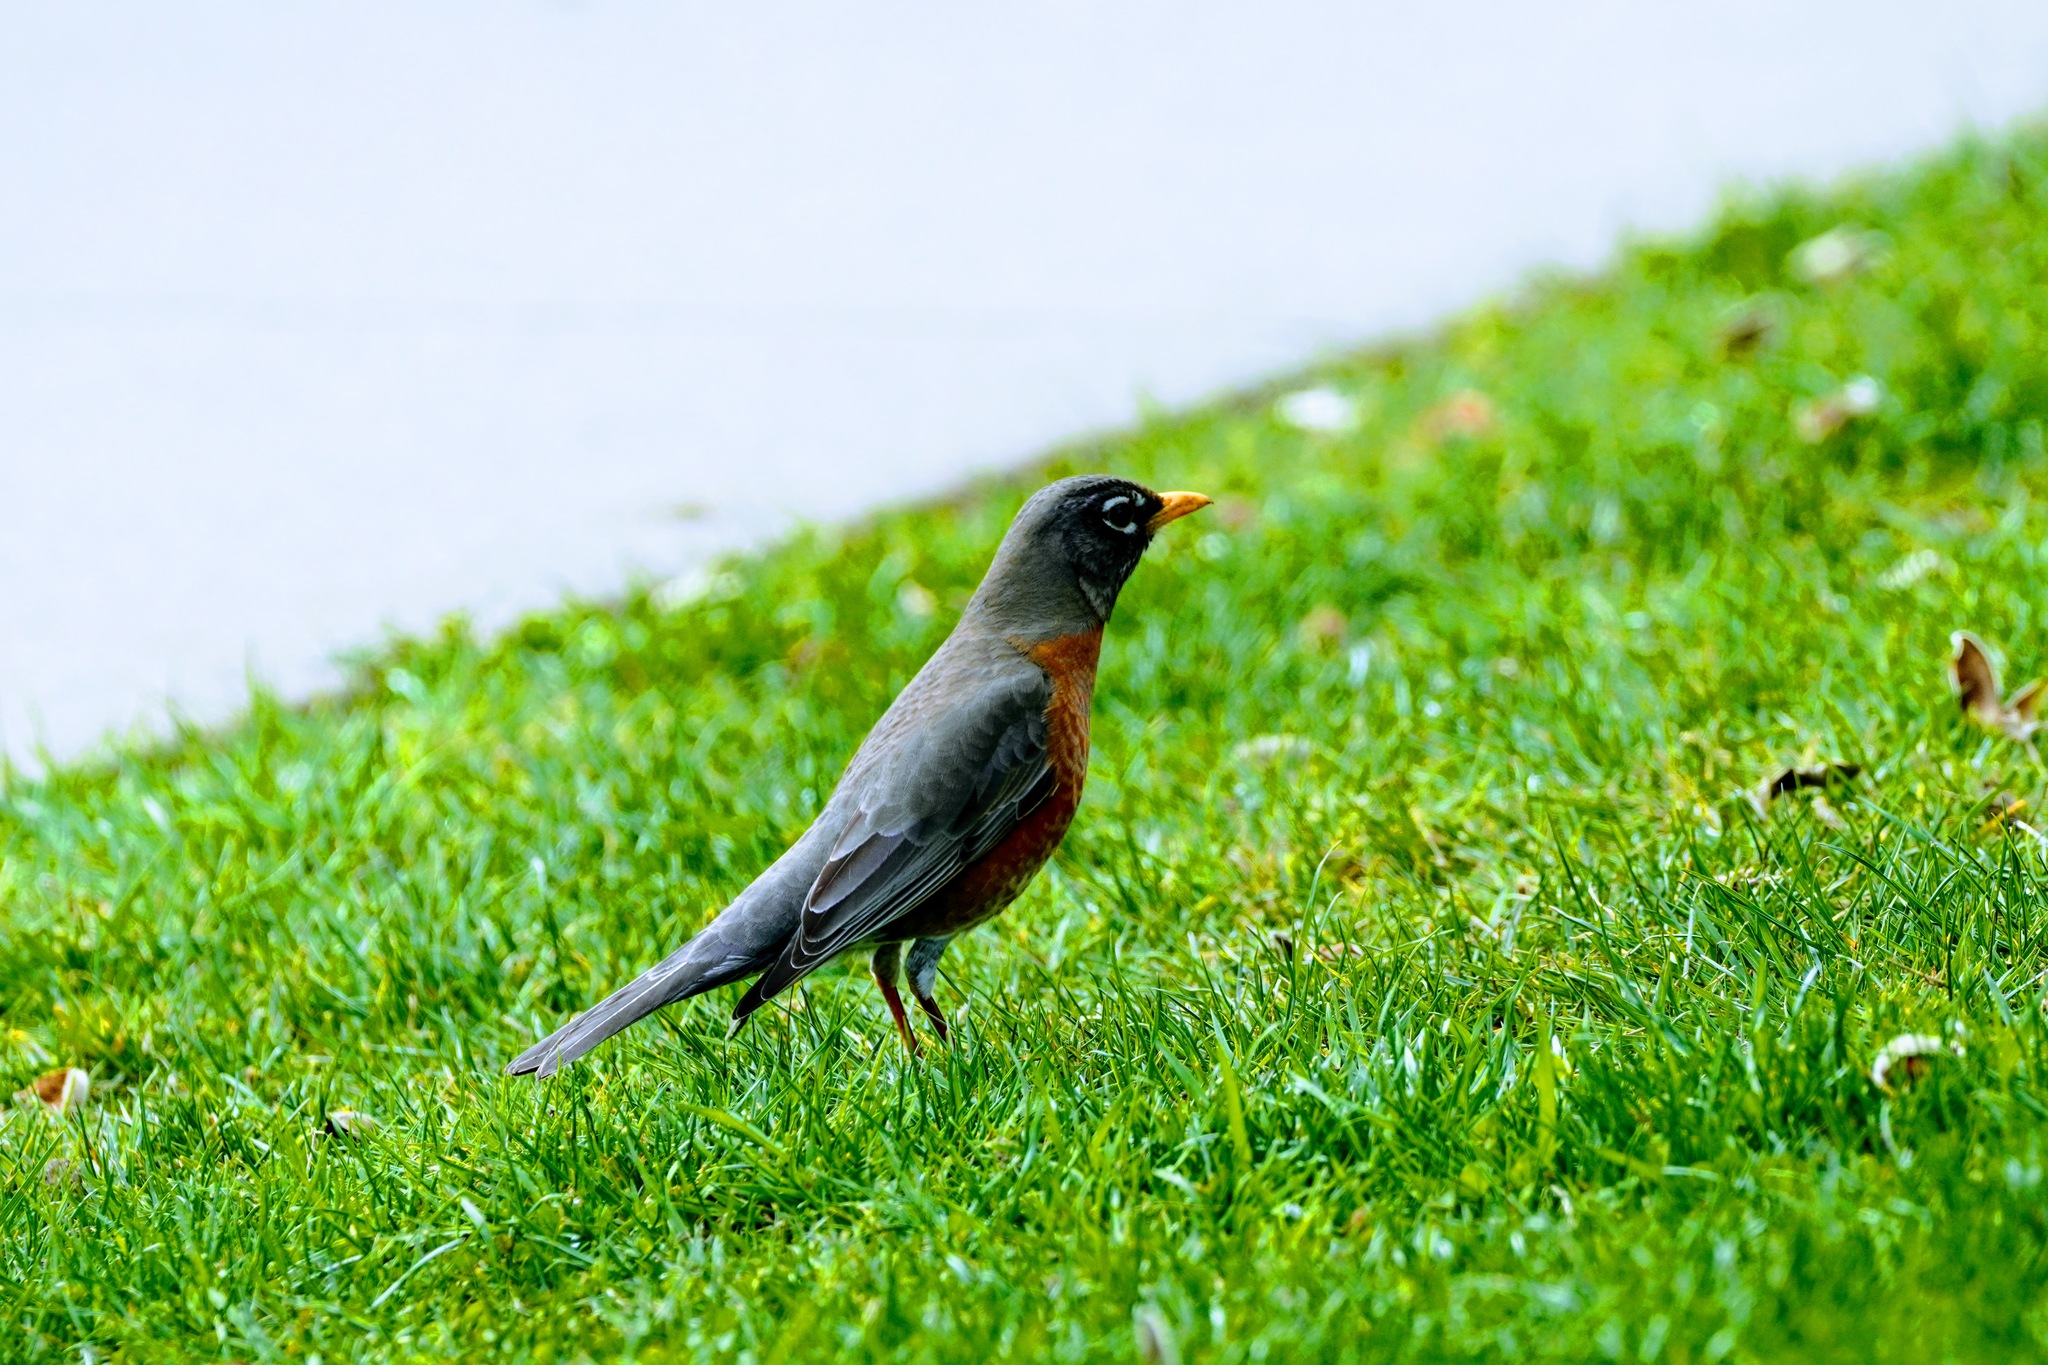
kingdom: Animalia
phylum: Chordata
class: Aves
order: Passeriformes
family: Turdidae
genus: Turdus
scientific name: Turdus migratorius
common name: American robin
